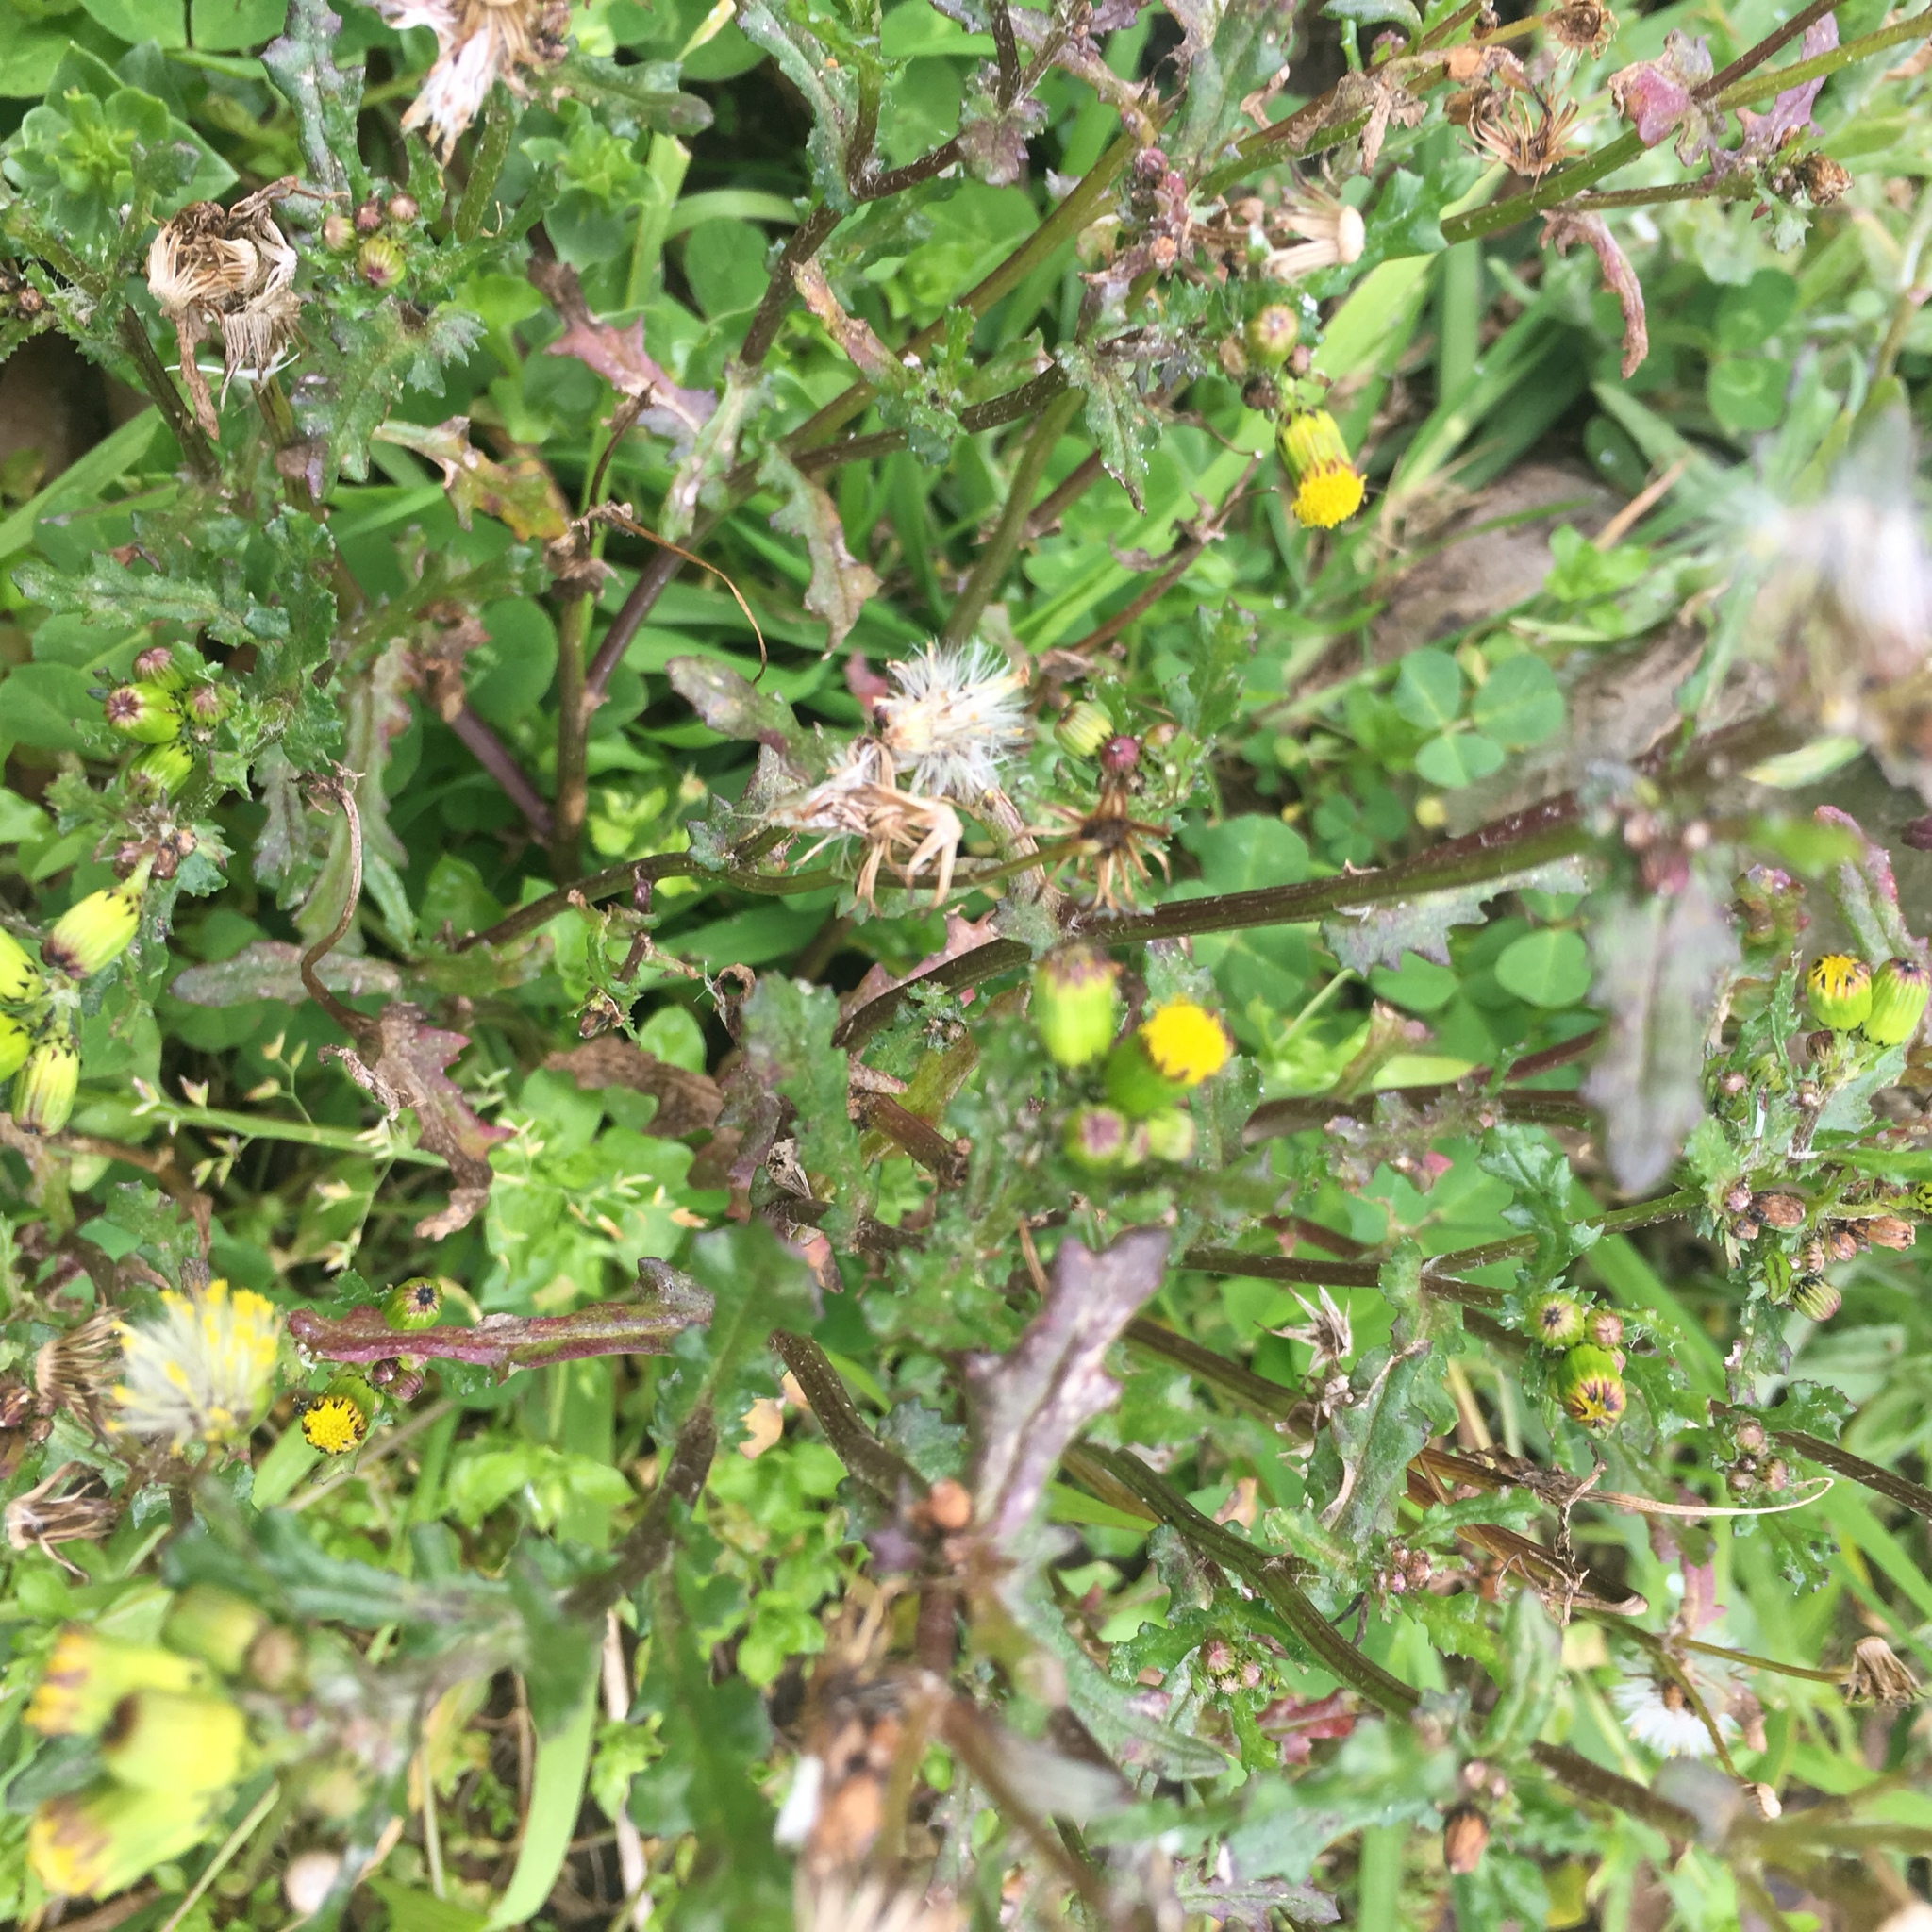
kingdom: Plantae
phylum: Tracheophyta
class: Magnoliopsida
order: Asterales
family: Asteraceae
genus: Senecio
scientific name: Senecio vulgaris
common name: Old-man-in-the-spring
